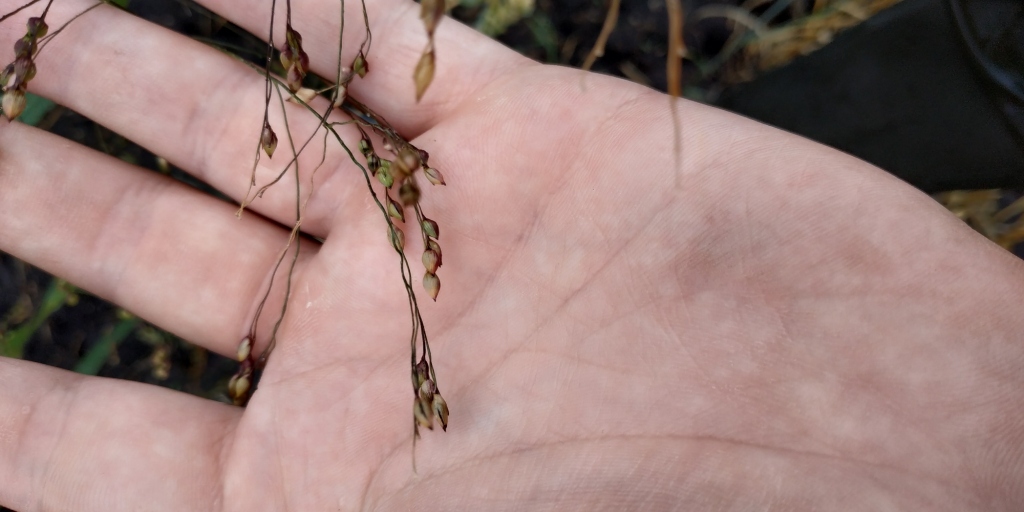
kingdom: Plantae
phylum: Tracheophyta
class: Liliopsida
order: Poales
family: Poaceae
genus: Panicum
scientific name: Panicum miliaceum
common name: Common millet
